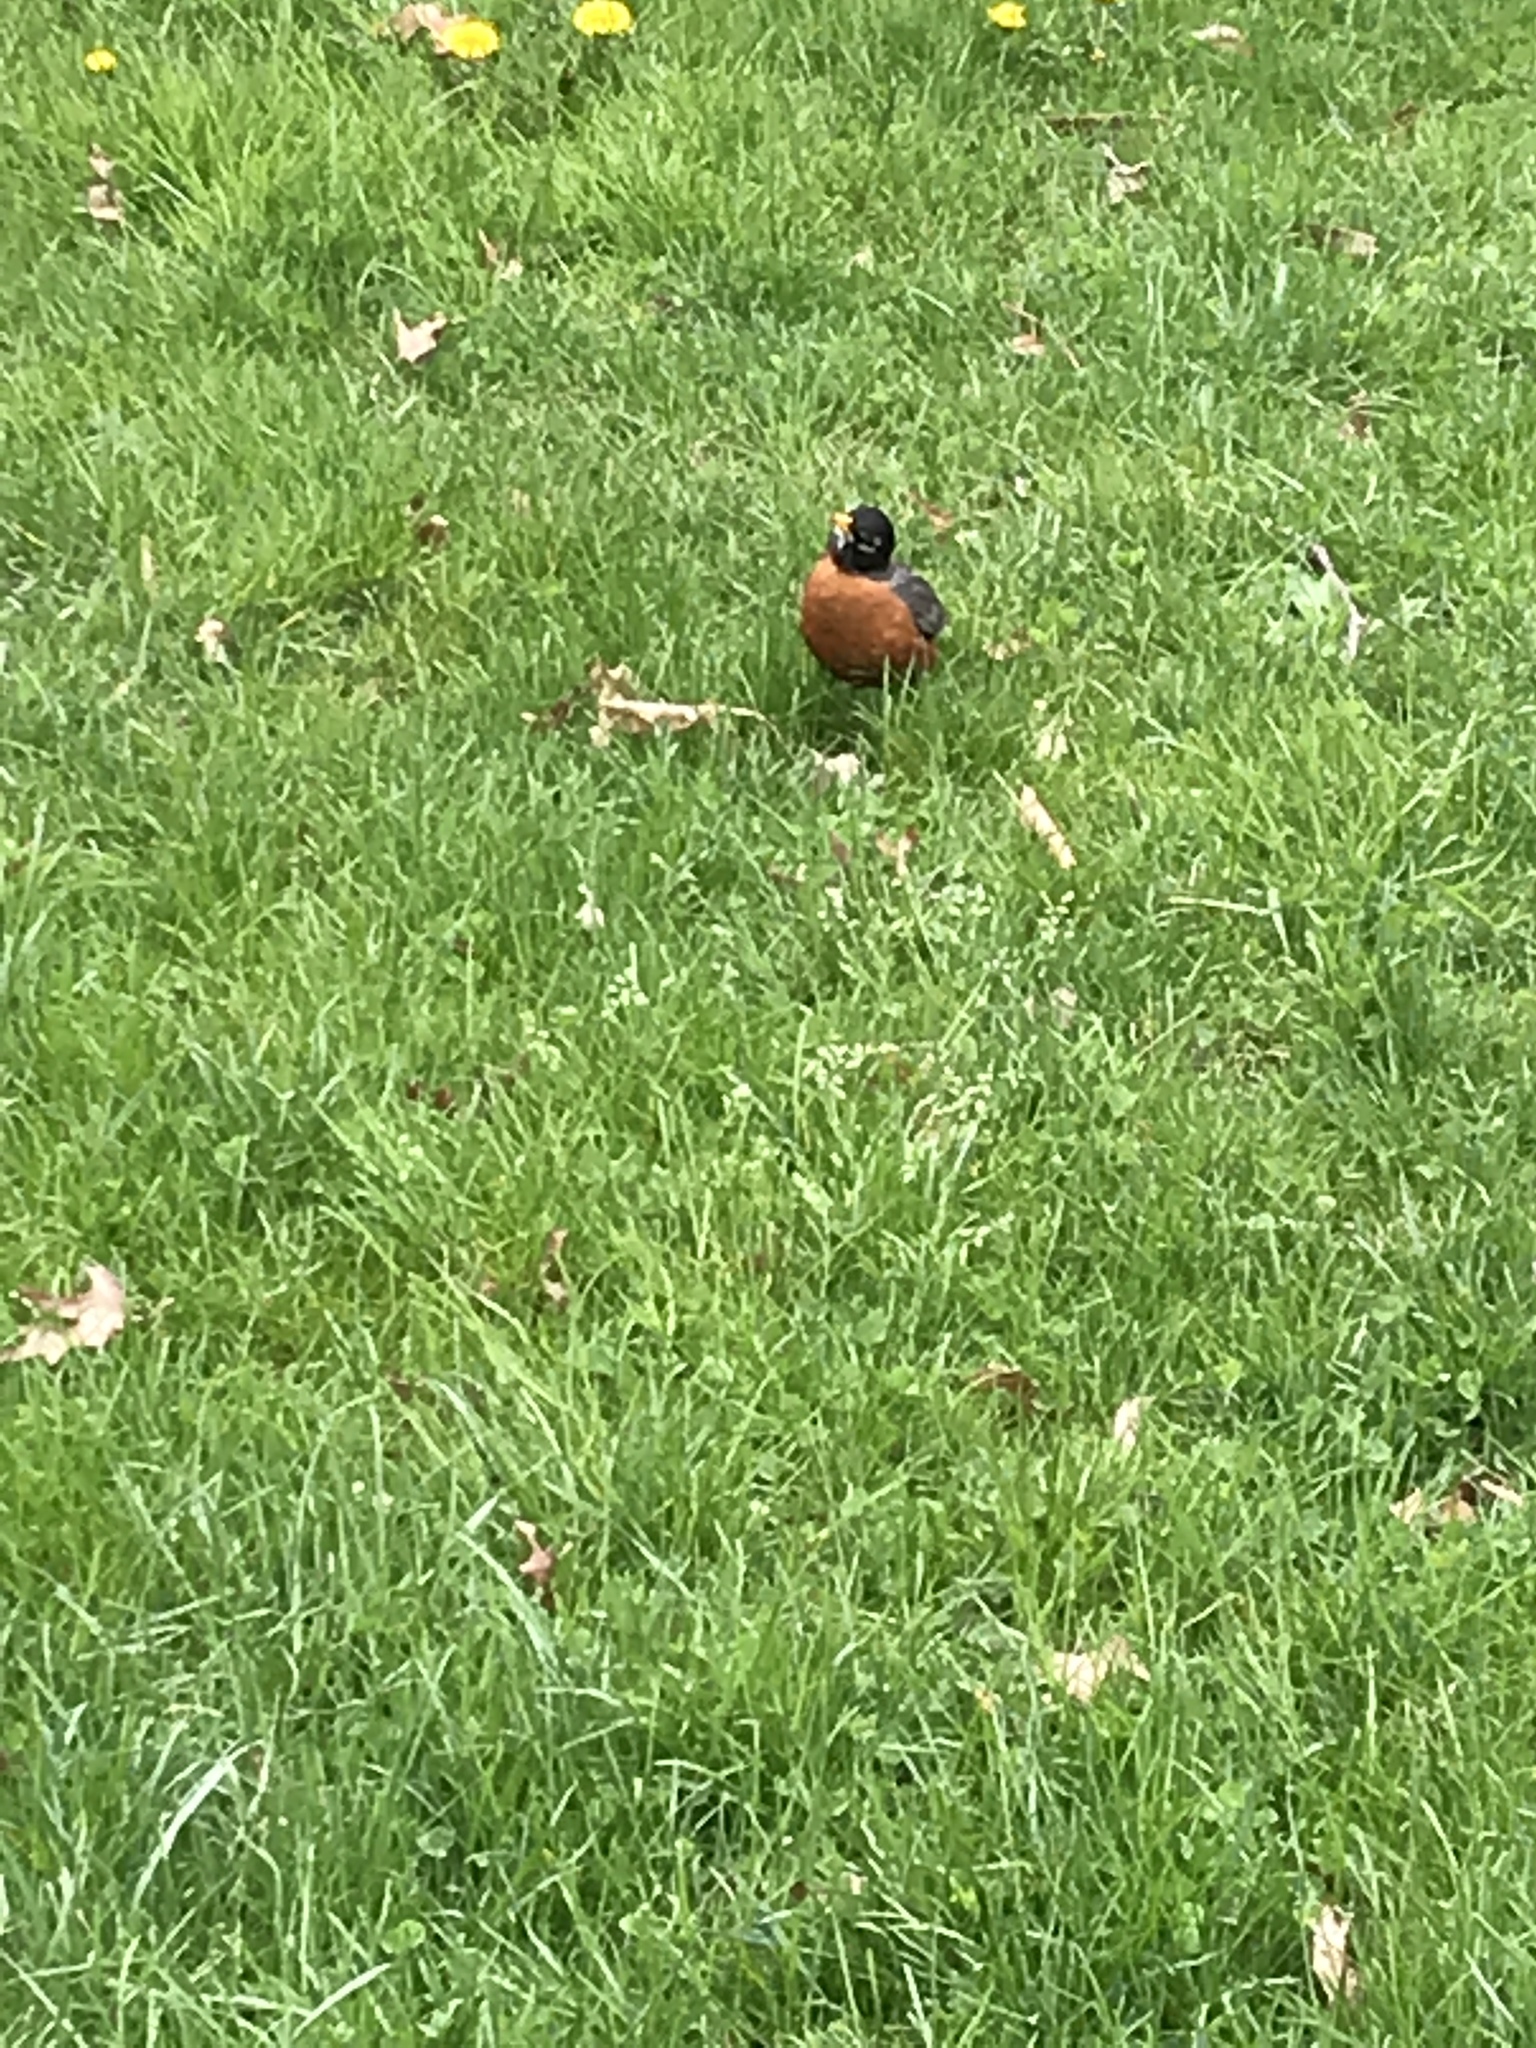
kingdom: Animalia
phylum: Chordata
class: Aves
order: Passeriformes
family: Turdidae
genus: Turdus
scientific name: Turdus migratorius
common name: American robin
